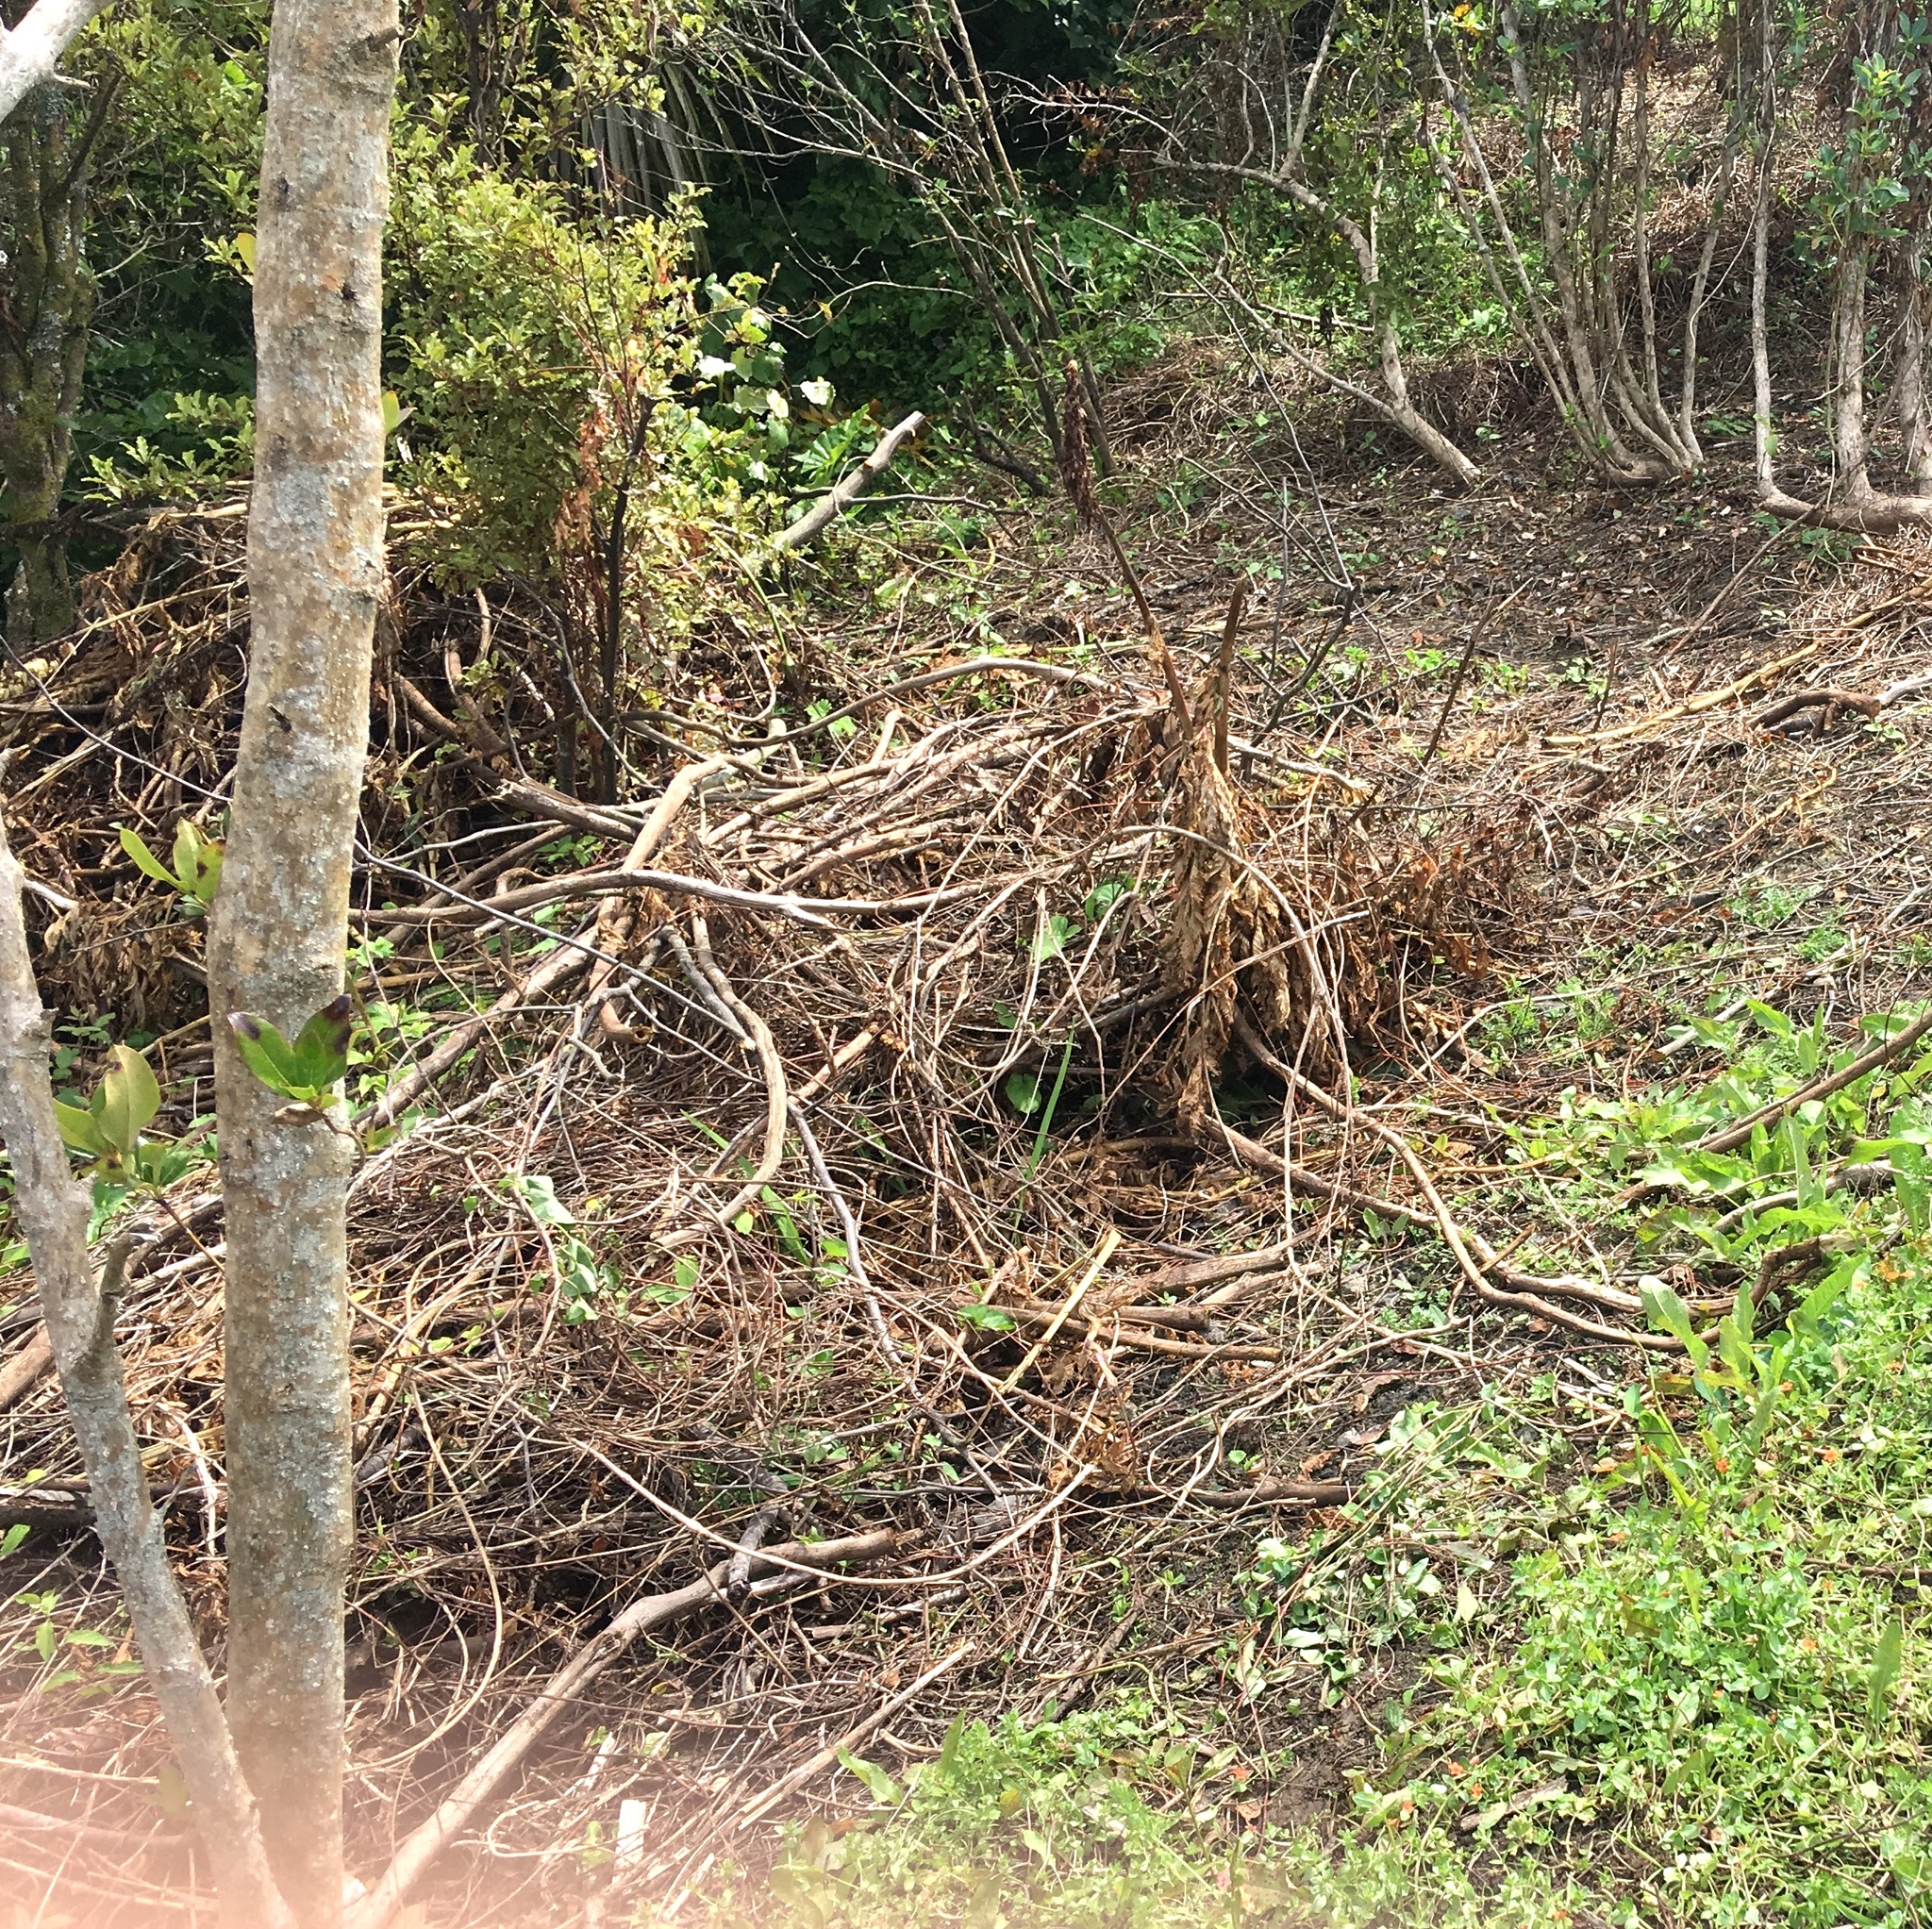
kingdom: Plantae
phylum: Tracheophyta
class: Magnoliopsida
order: Piperales
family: Piperaceae
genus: Macropiper
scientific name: Macropiper excelsum
